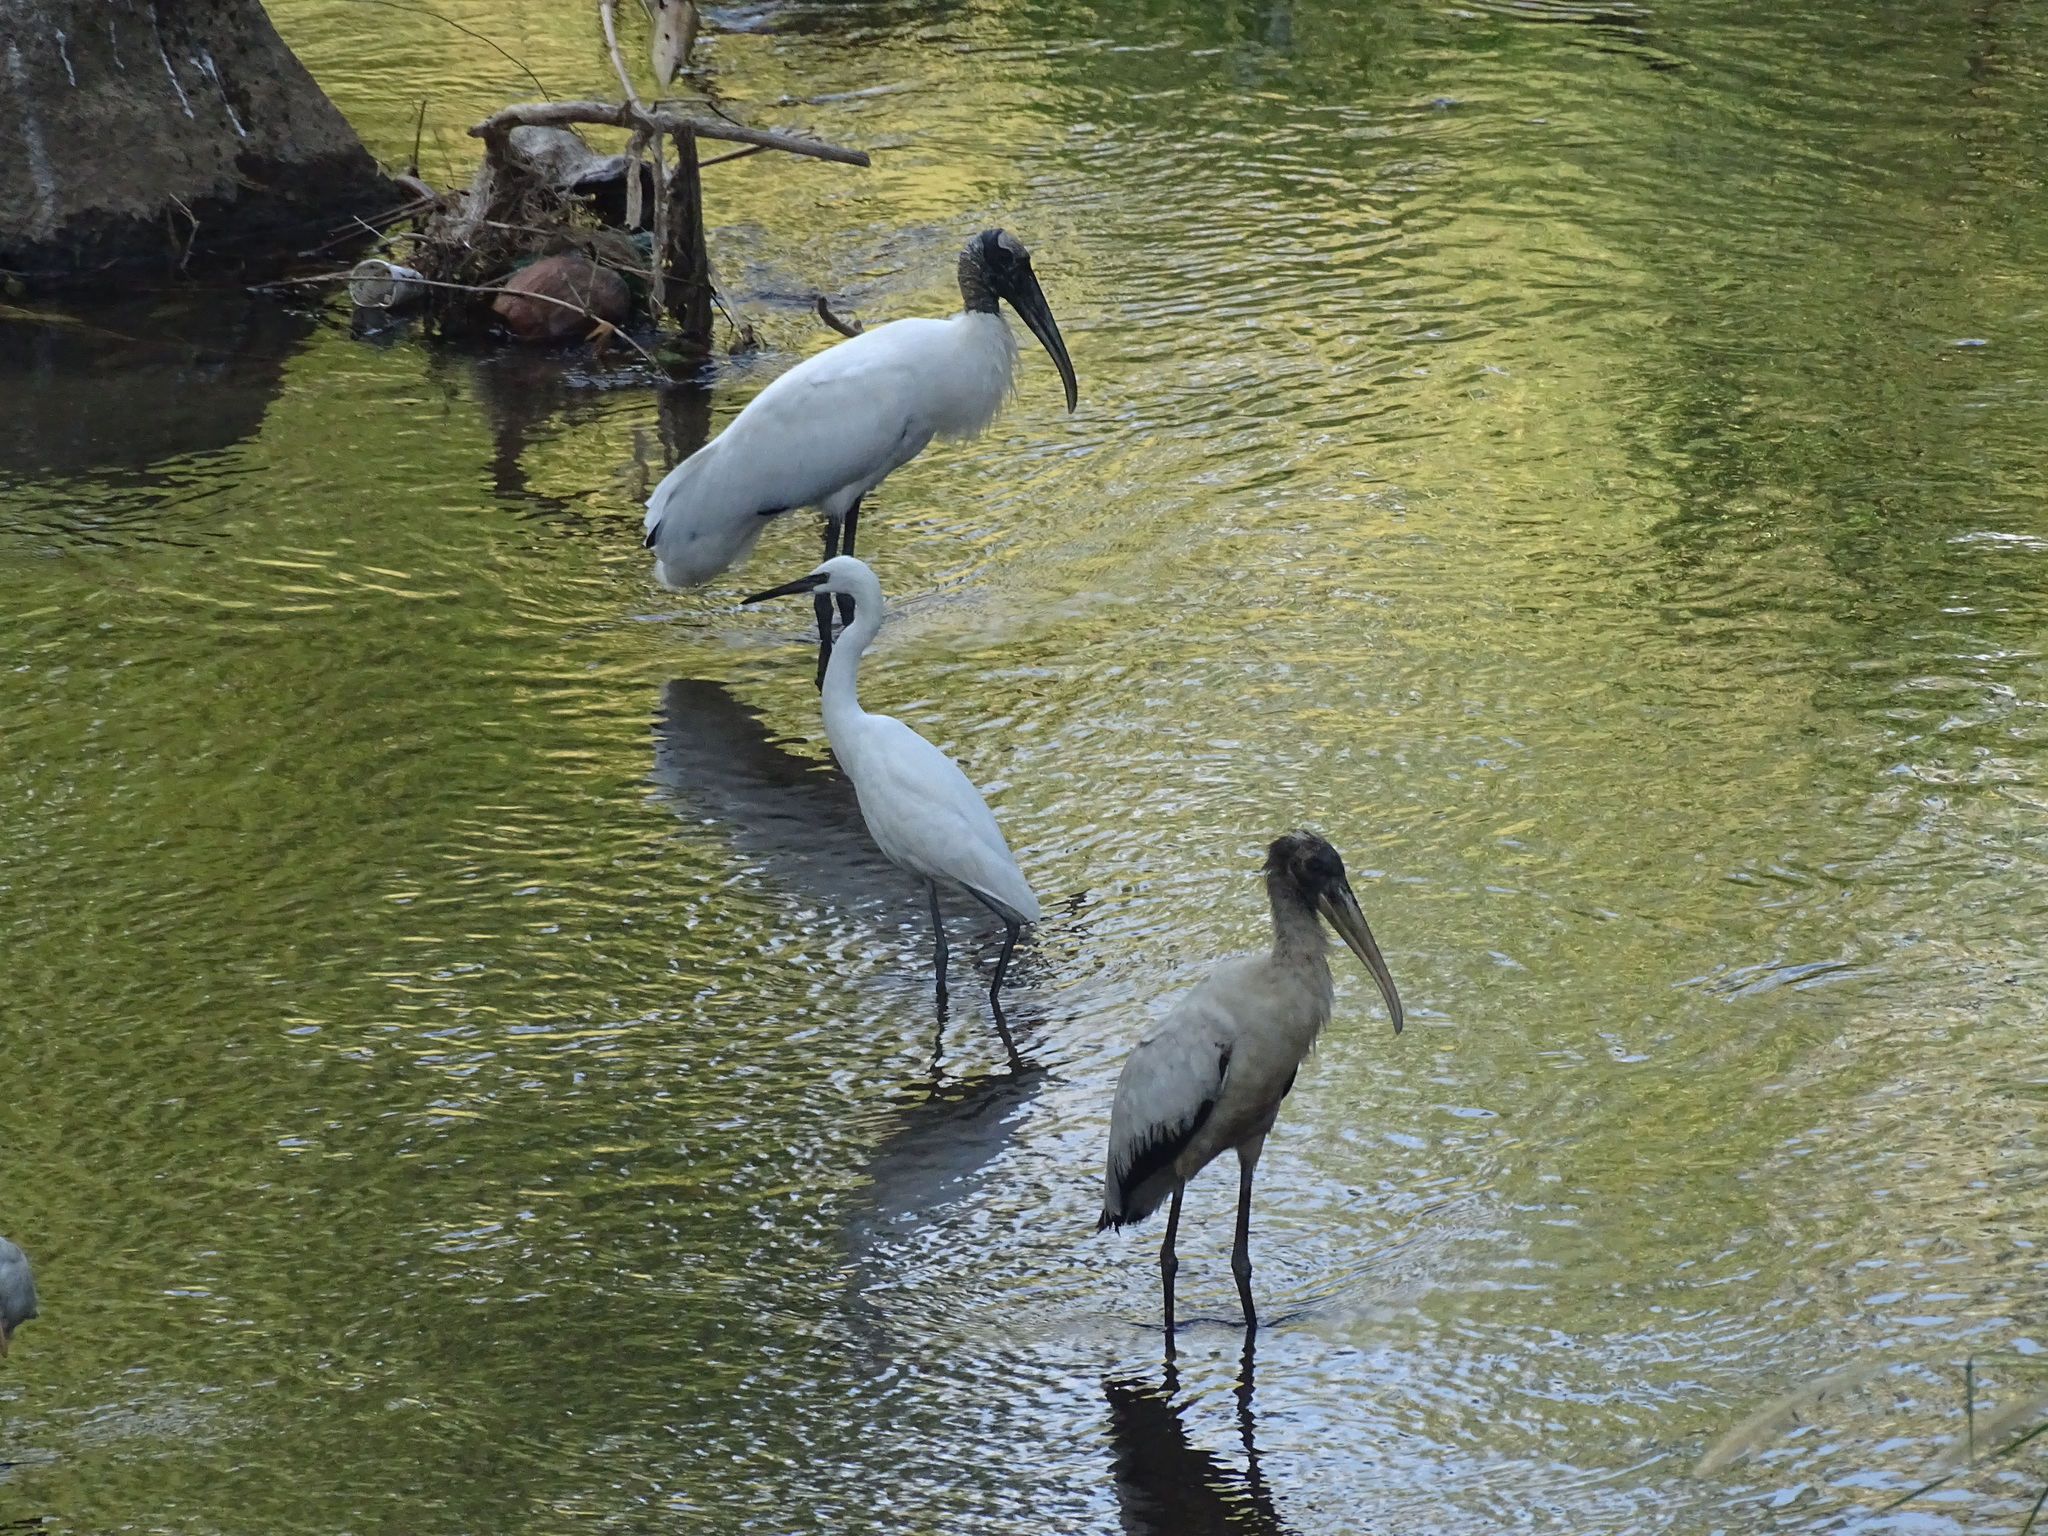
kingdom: Animalia
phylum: Chordata
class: Aves
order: Ciconiiformes
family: Ciconiidae
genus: Mycteria
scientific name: Mycteria americana
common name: Wood stork
